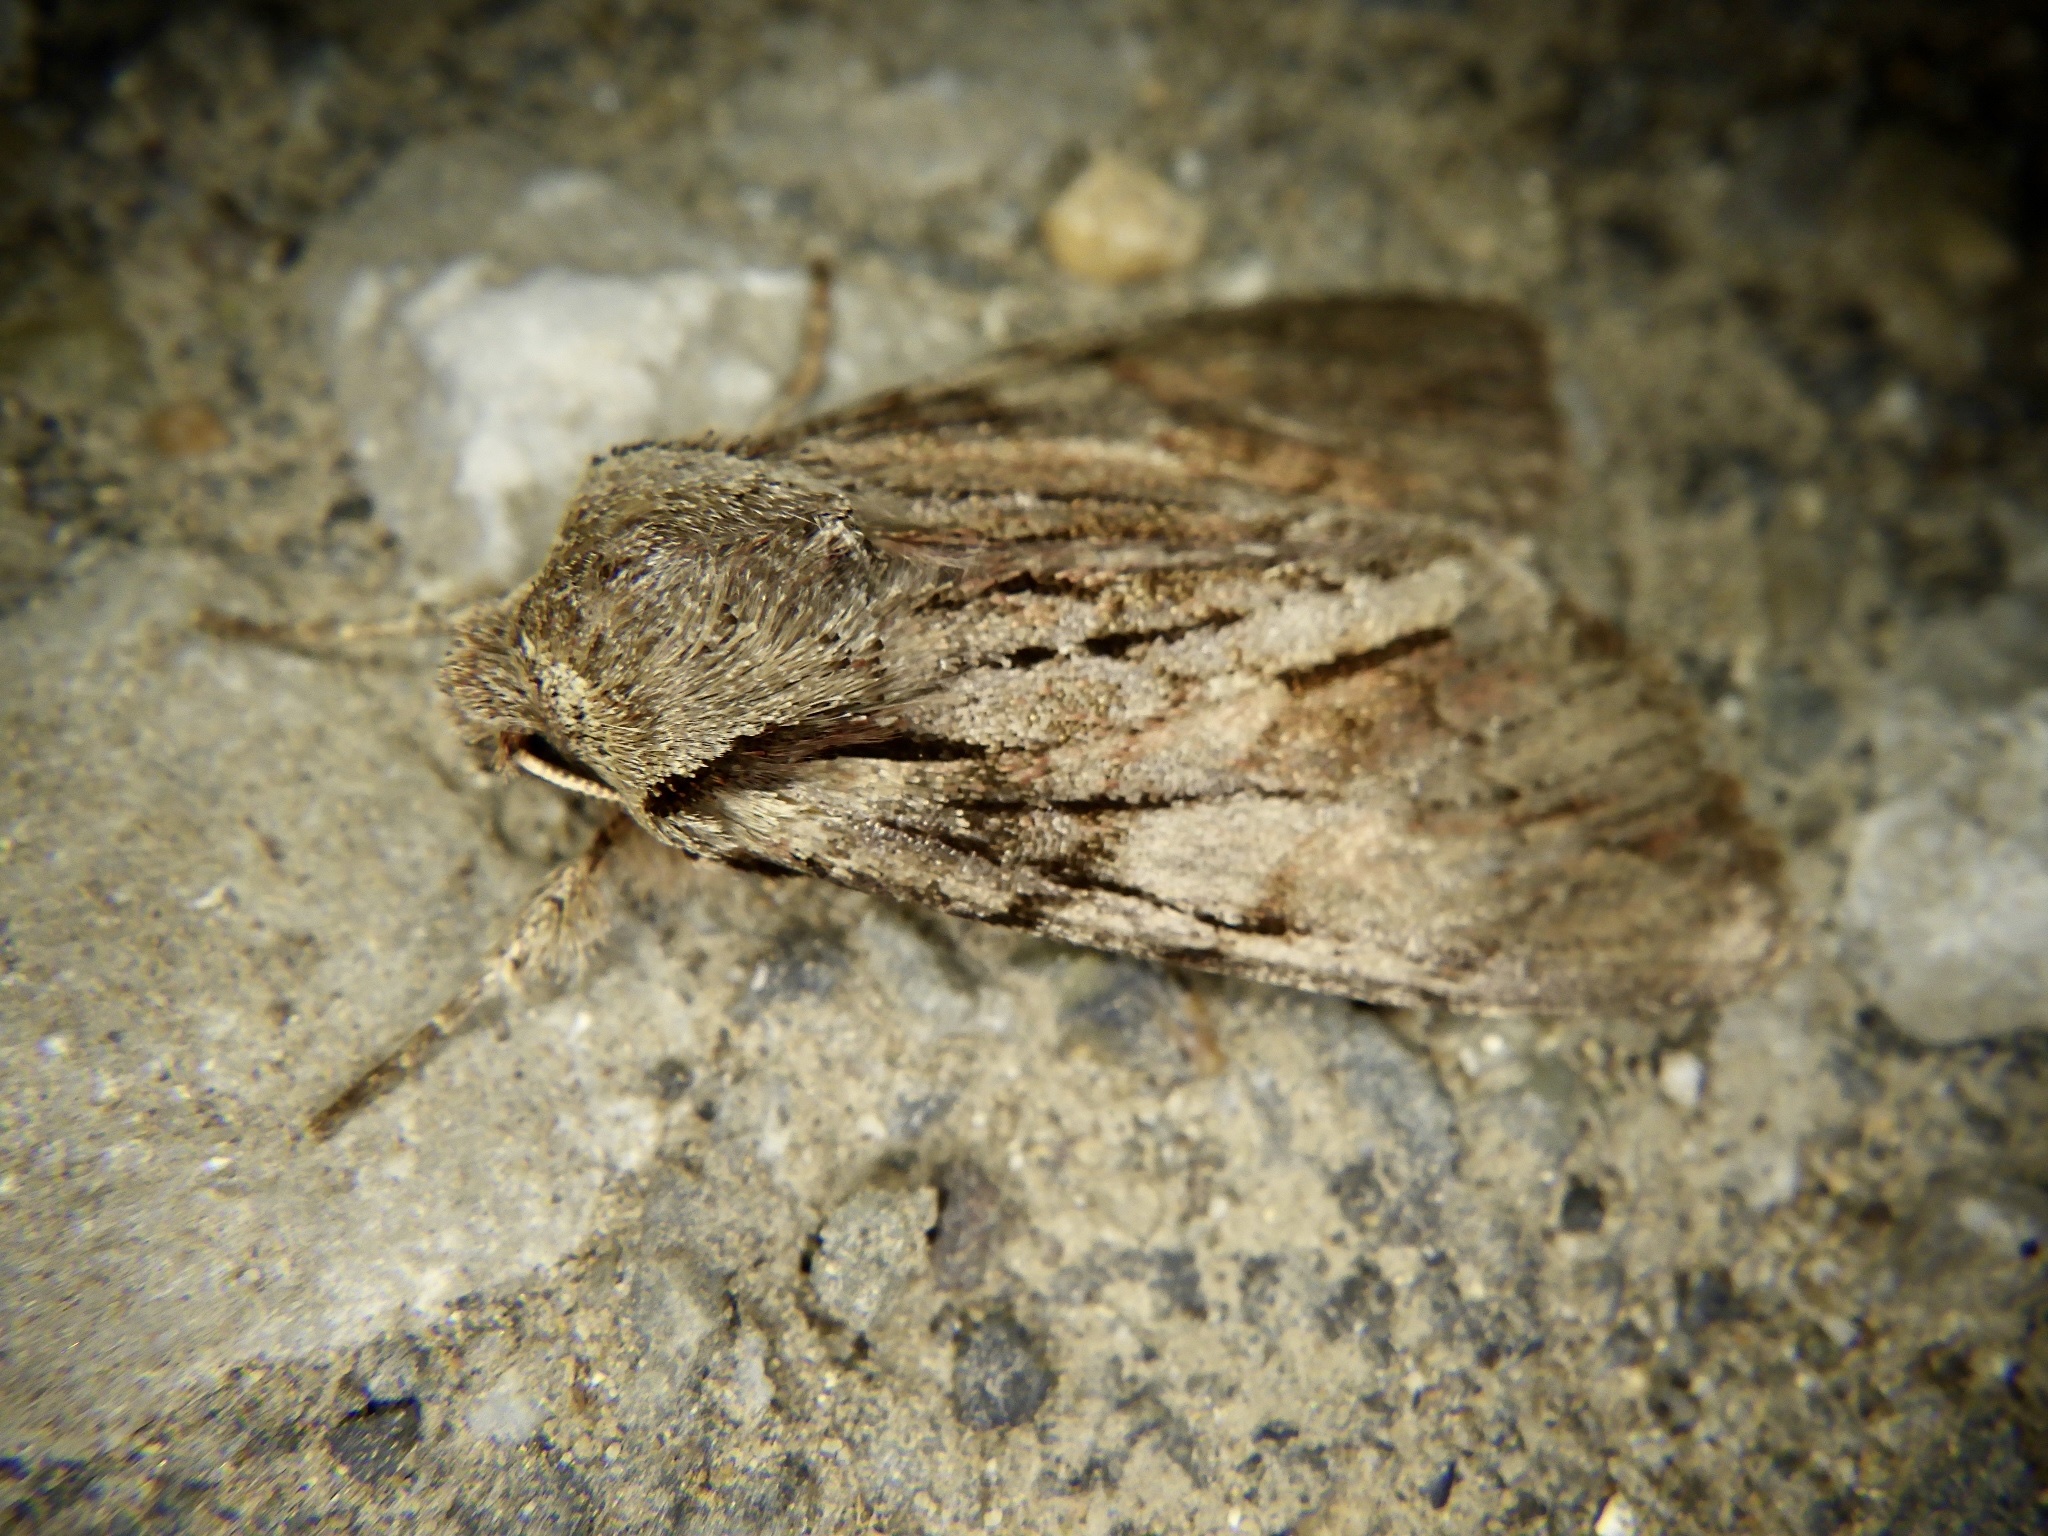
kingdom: Animalia
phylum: Arthropoda
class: Insecta
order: Lepidoptera
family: Noctuidae
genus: Egira
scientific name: Egira saxea
